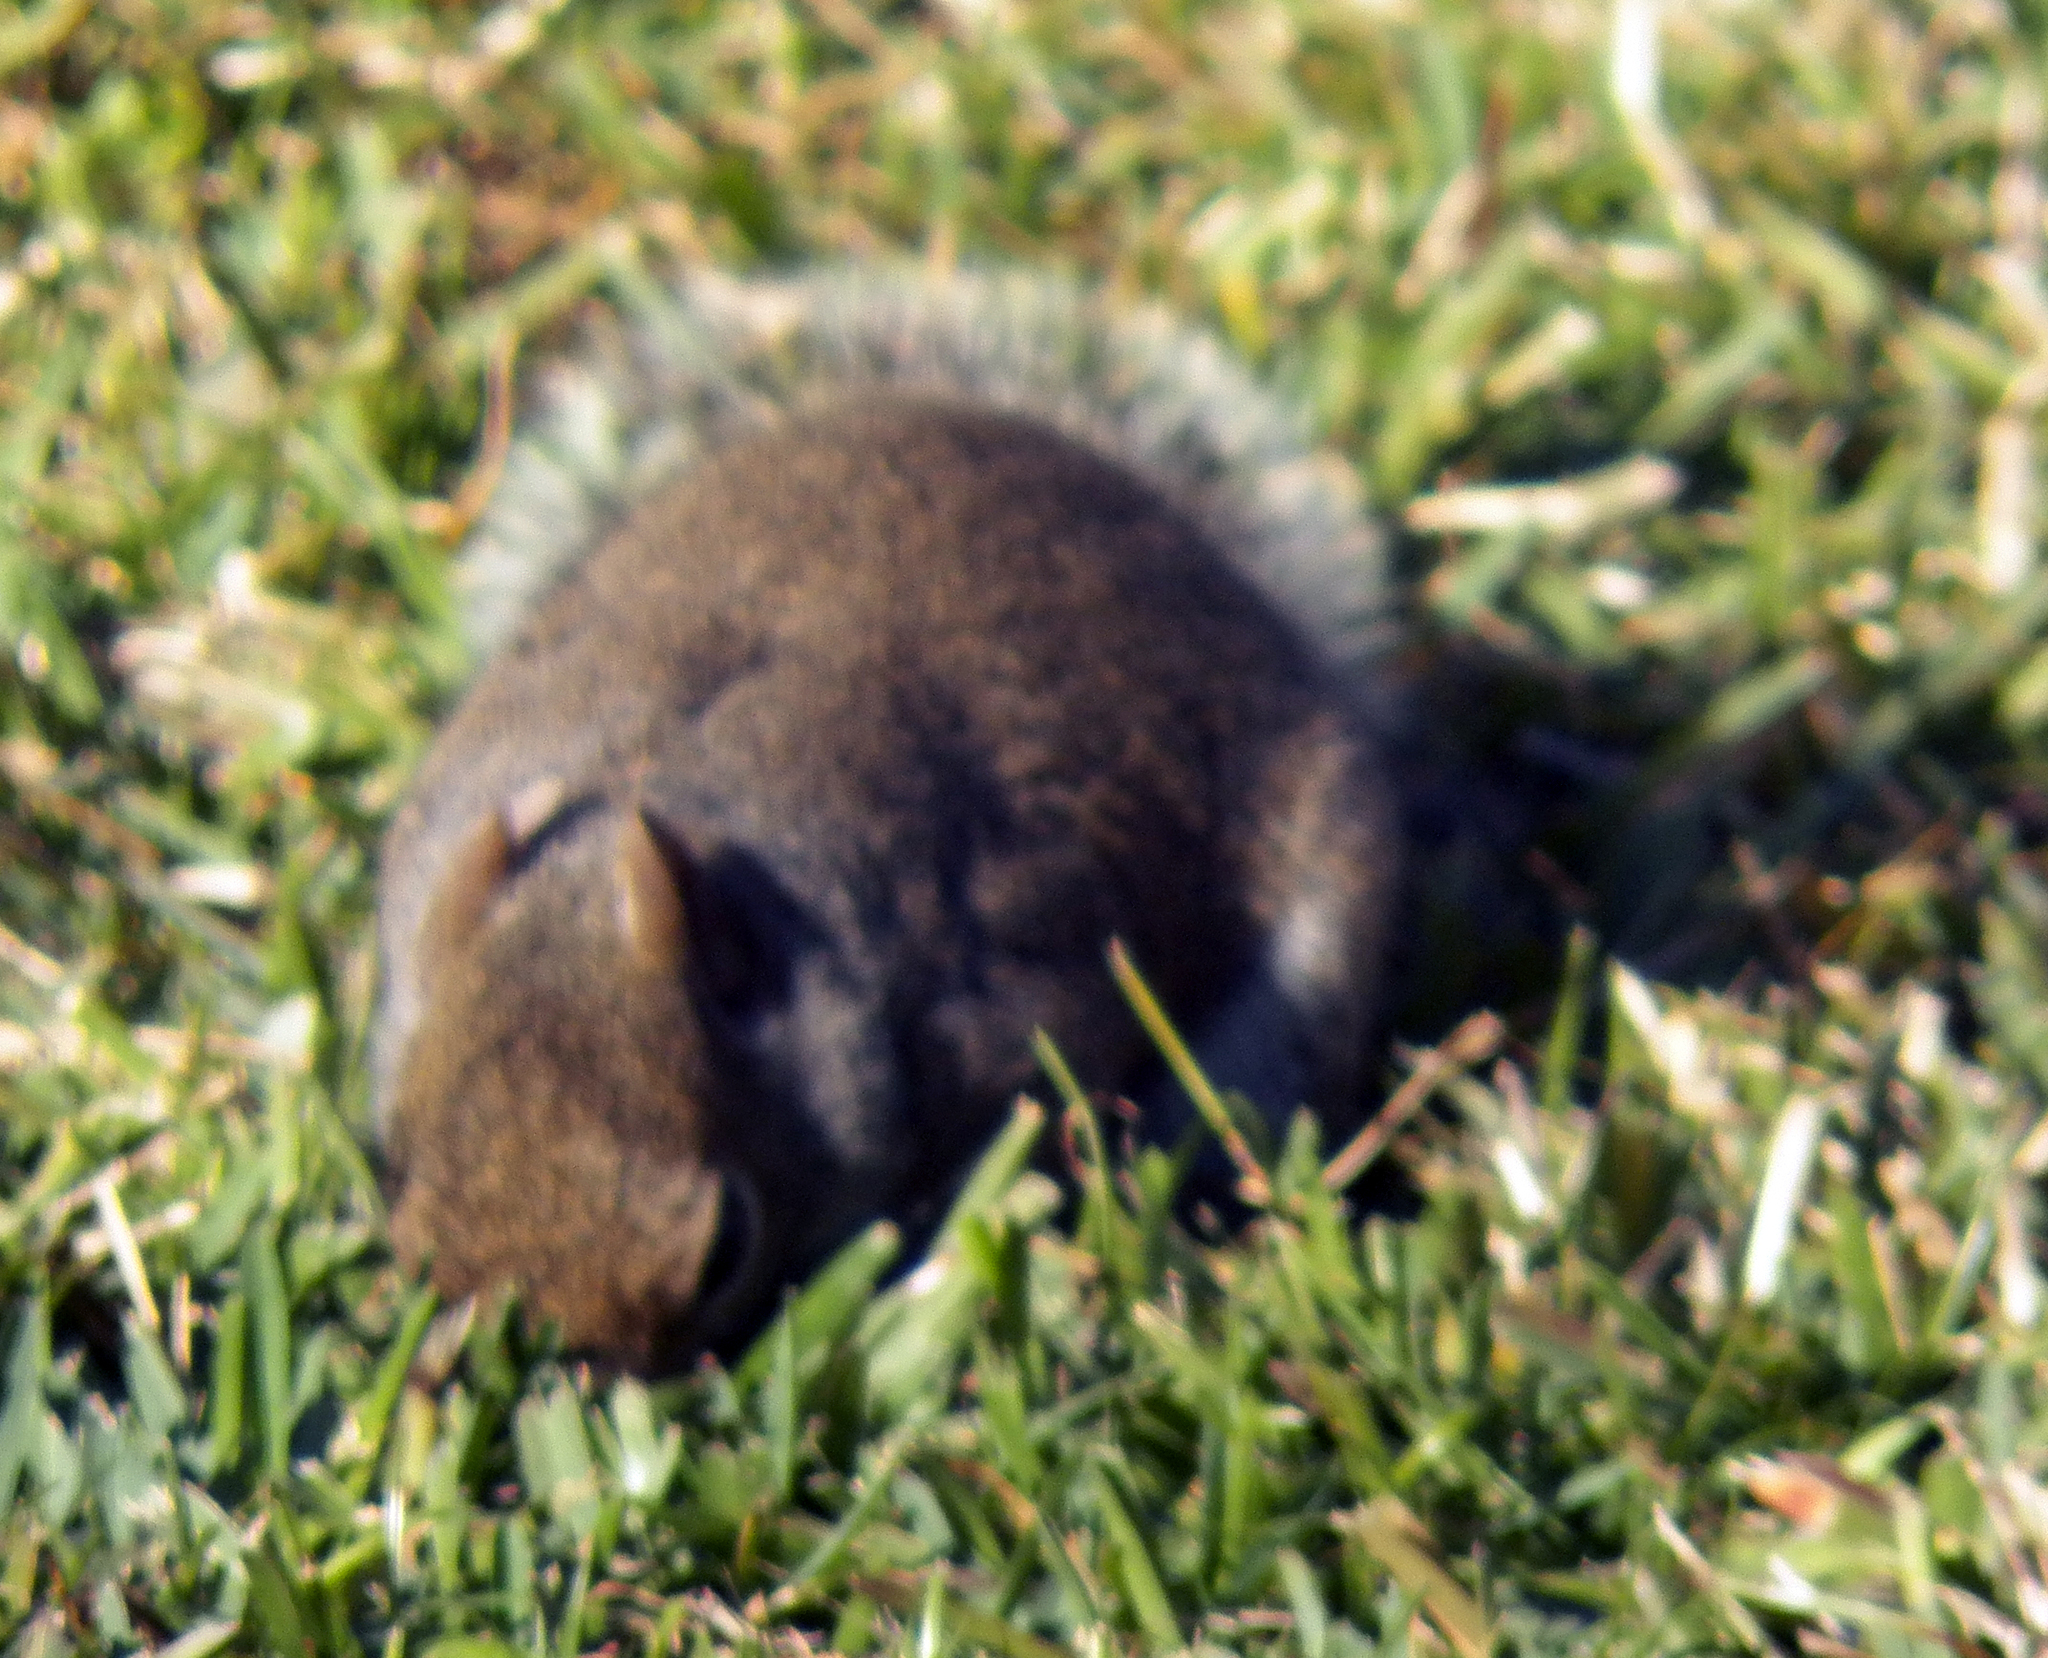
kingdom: Animalia
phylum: Chordata
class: Mammalia
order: Rodentia
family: Sciuridae
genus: Sciurus
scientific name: Sciurus carolinensis
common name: Eastern gray squirrel
